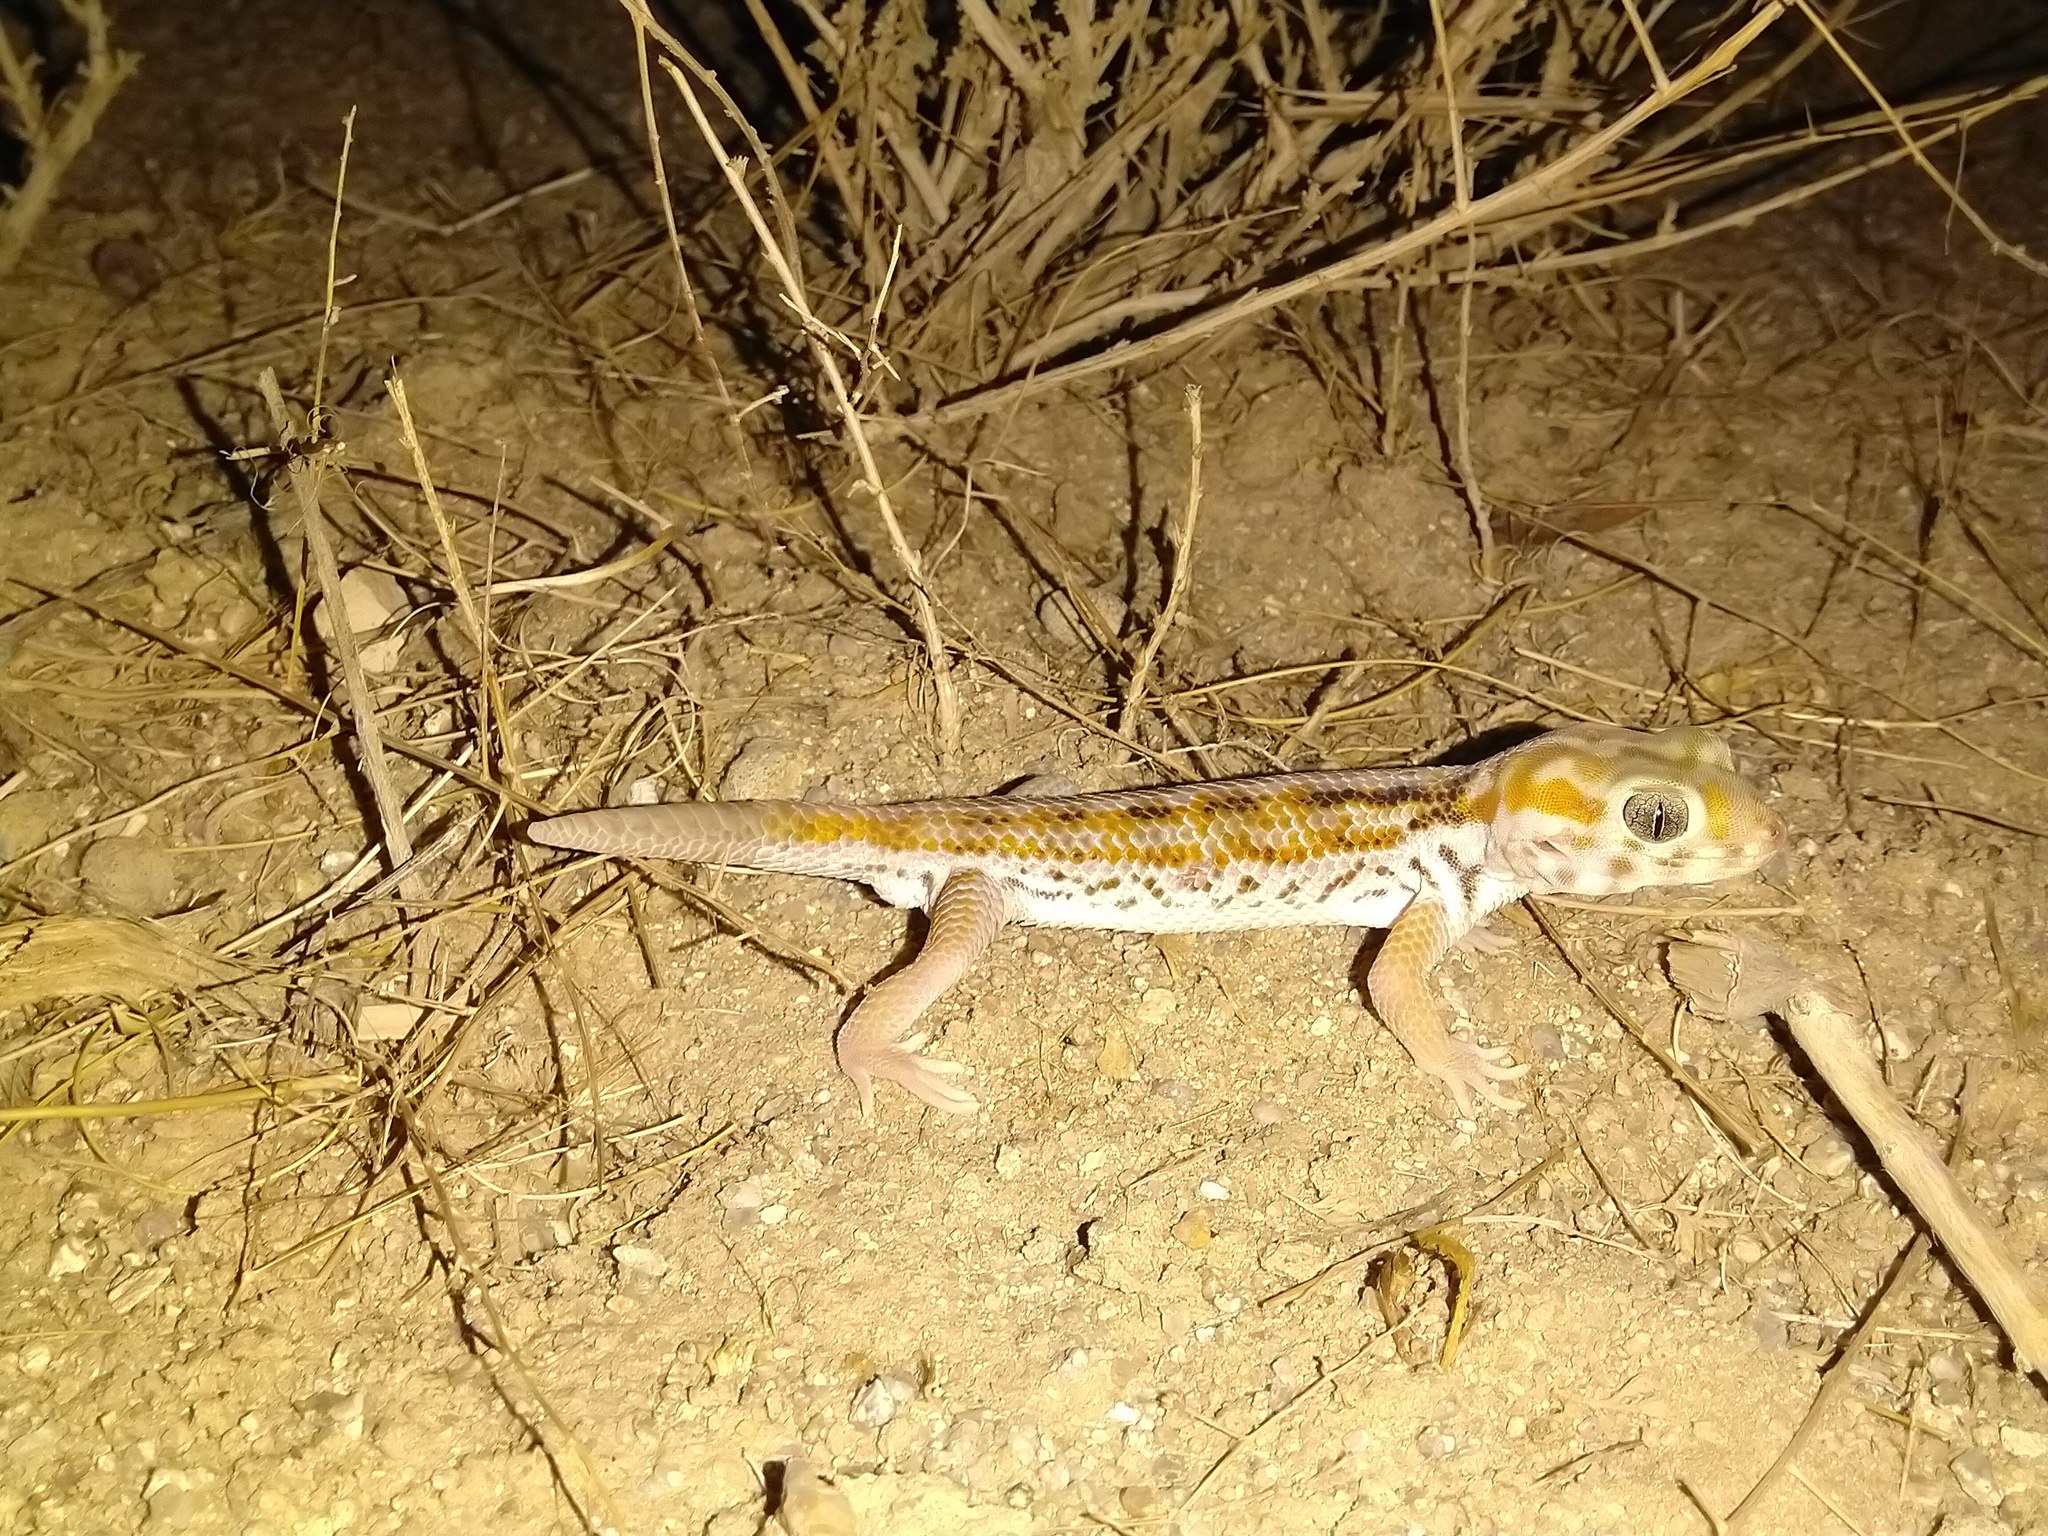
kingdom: Animalia
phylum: Chordata
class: Squamata
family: Sphaerodactylidae
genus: Teratoscincus
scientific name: Teratoscincus keyserlingii
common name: Frog-eyed gecko
